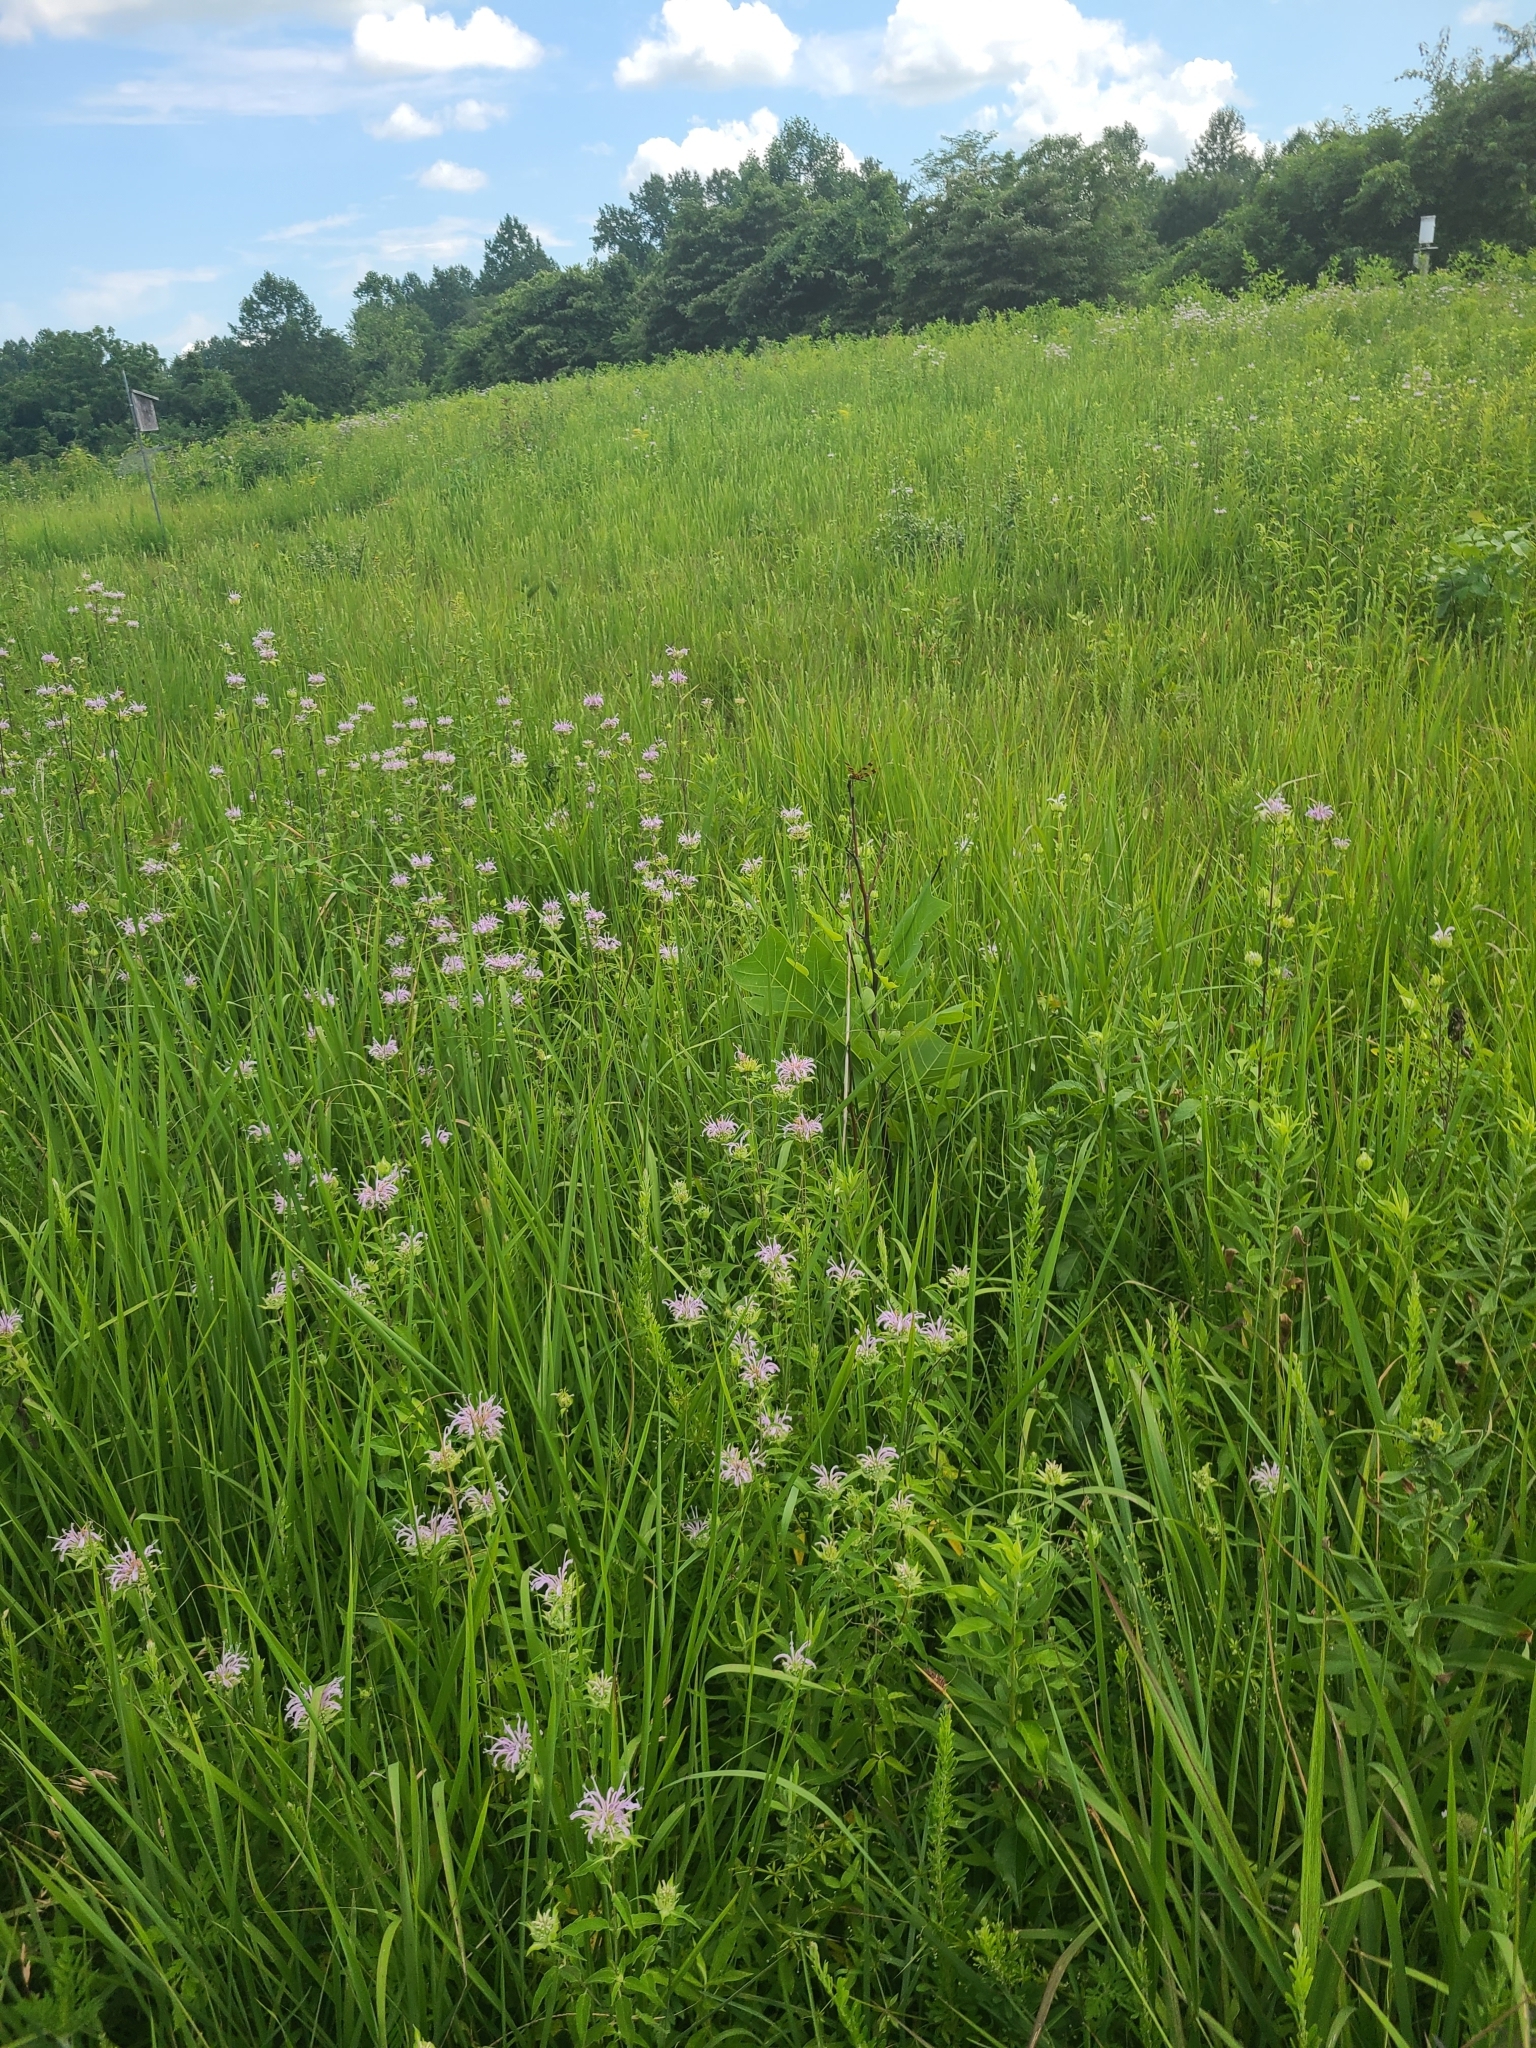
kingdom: Animalia
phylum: Arthropoda
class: Insecta
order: Odonata
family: Libellulidae
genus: Celithemis
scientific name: Celithemis eponina
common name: Halloween pennant
